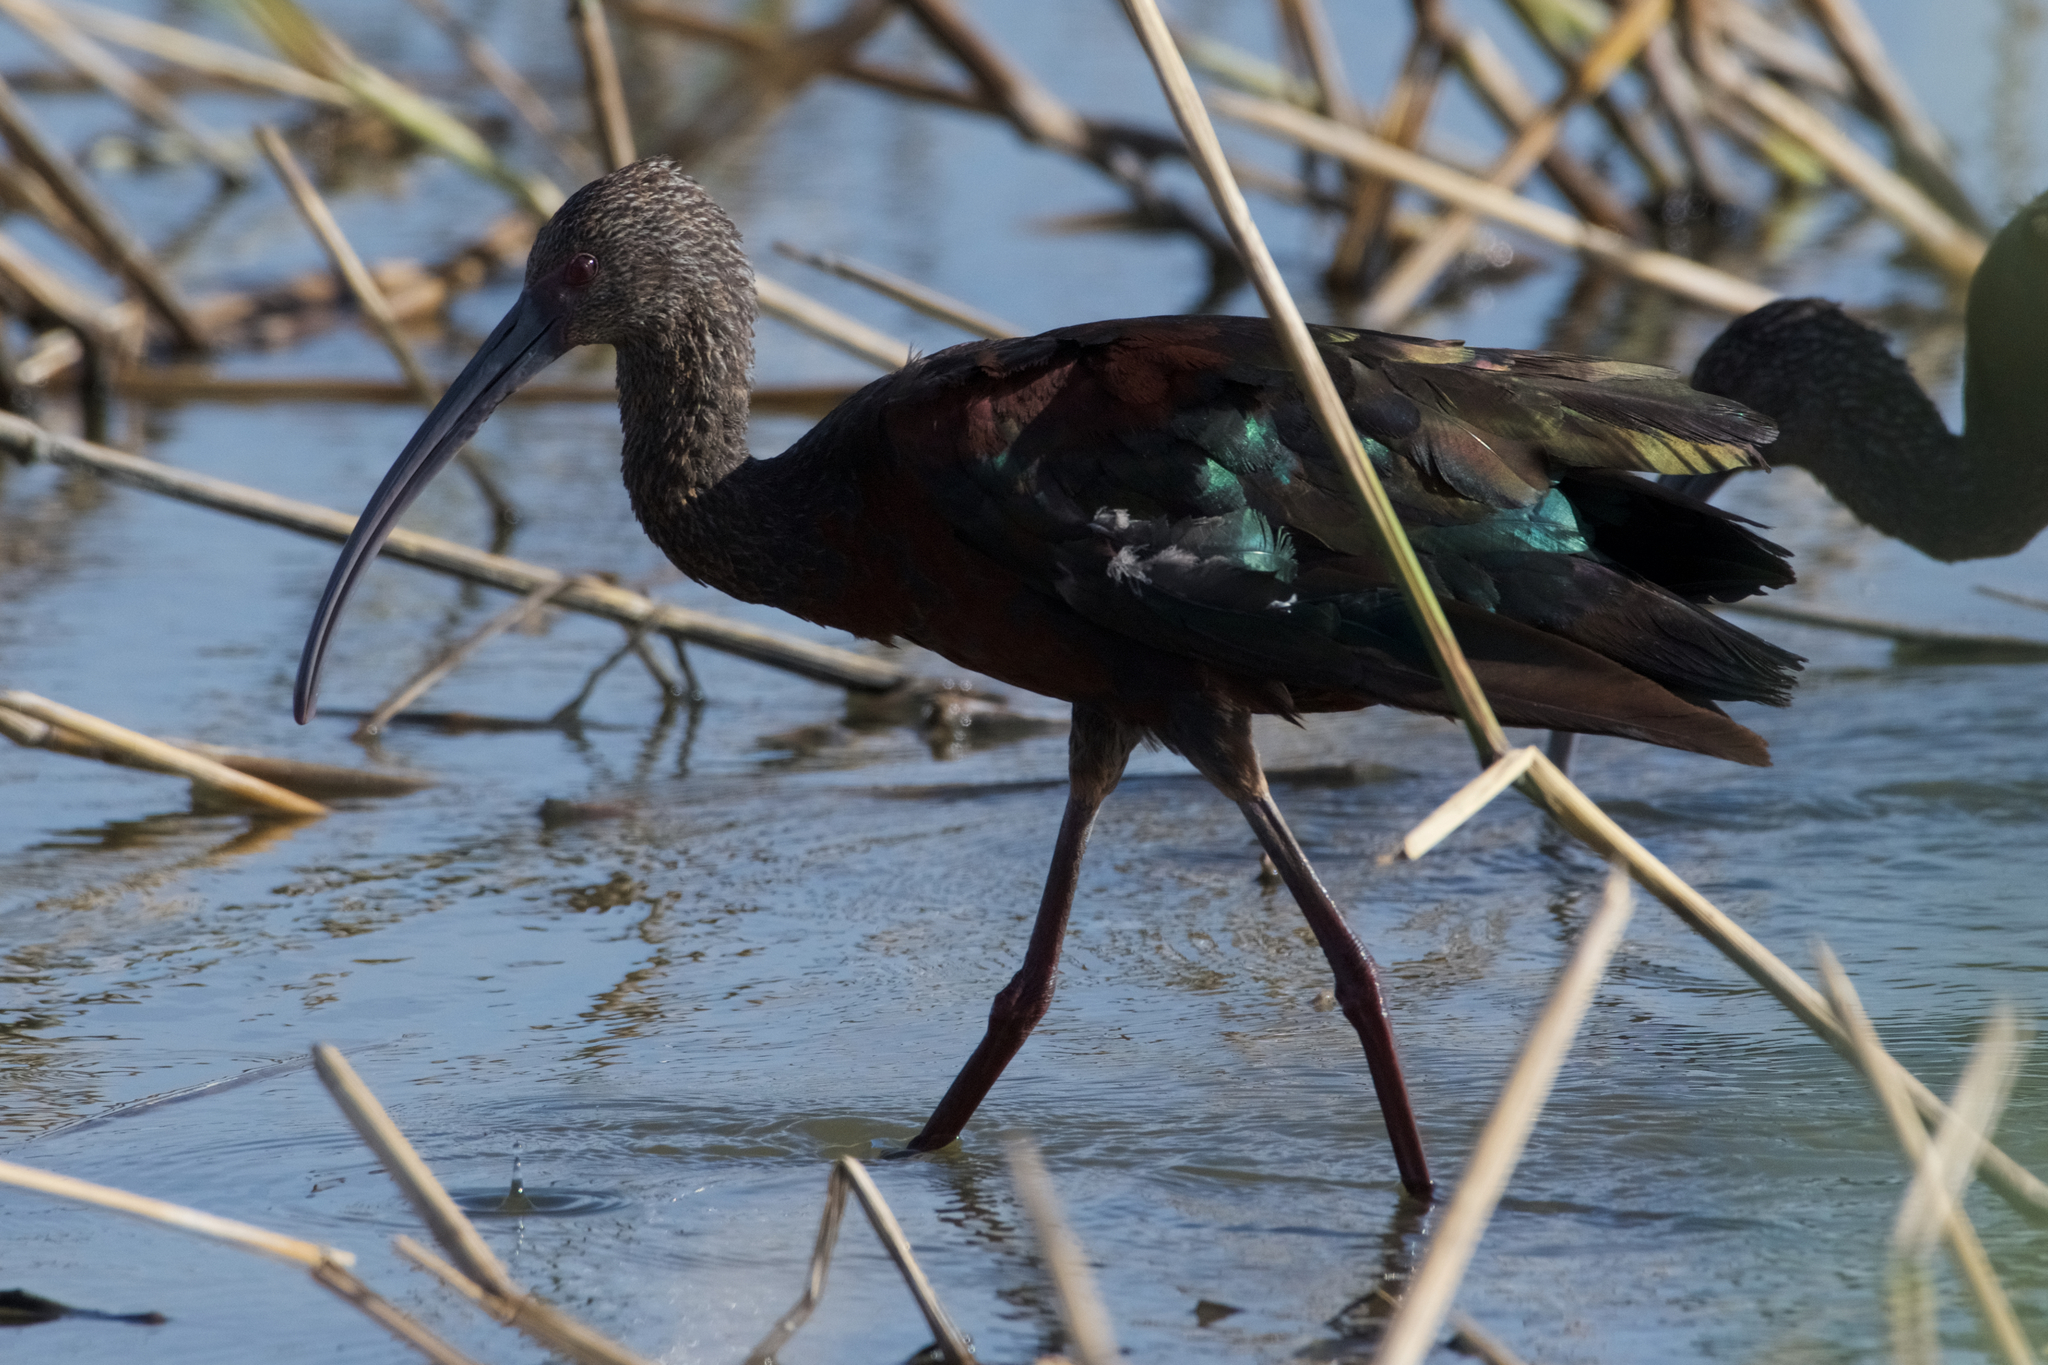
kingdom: Animalia
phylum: Chordata
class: Aves
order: Pelecaniformes
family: Threskiornithidae
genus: Plegadis
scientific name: Plegadis chihi
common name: White-faced ibis
